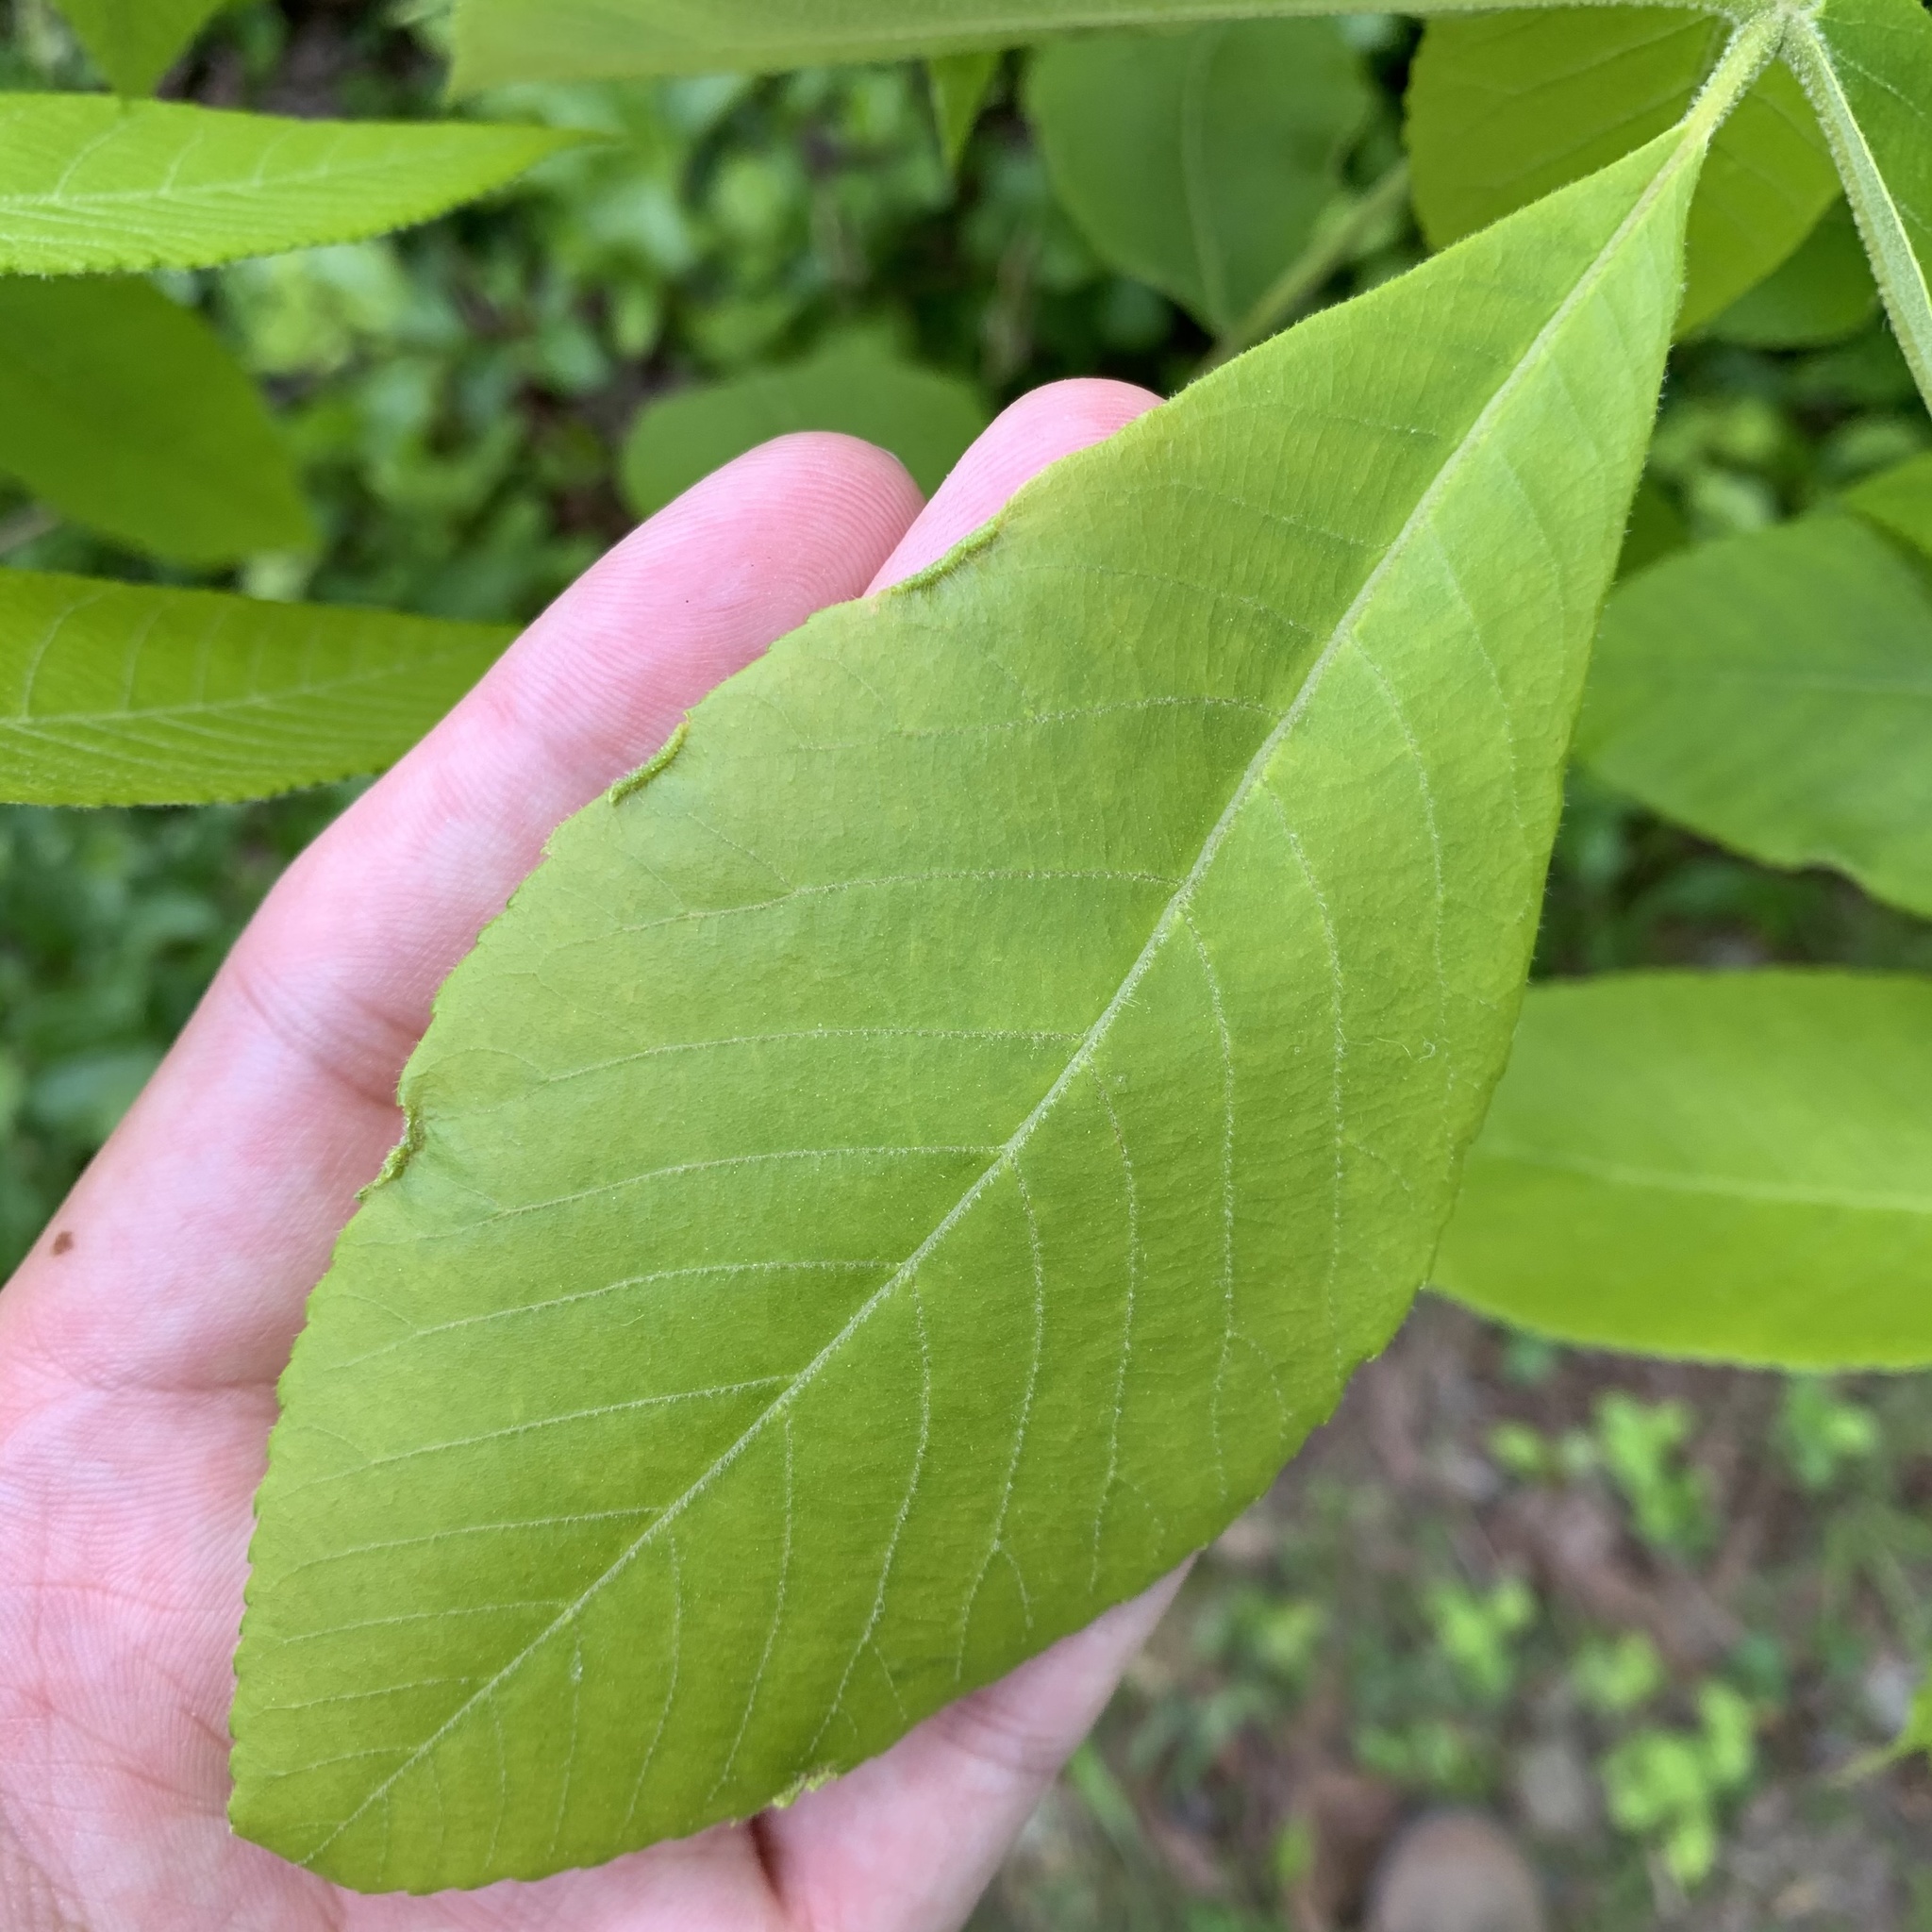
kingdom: Animalia
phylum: Arthropoda
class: Arachnida
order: Trombidiformes
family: Eriophyidae
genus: Aceria
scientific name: Aceria carlinae
